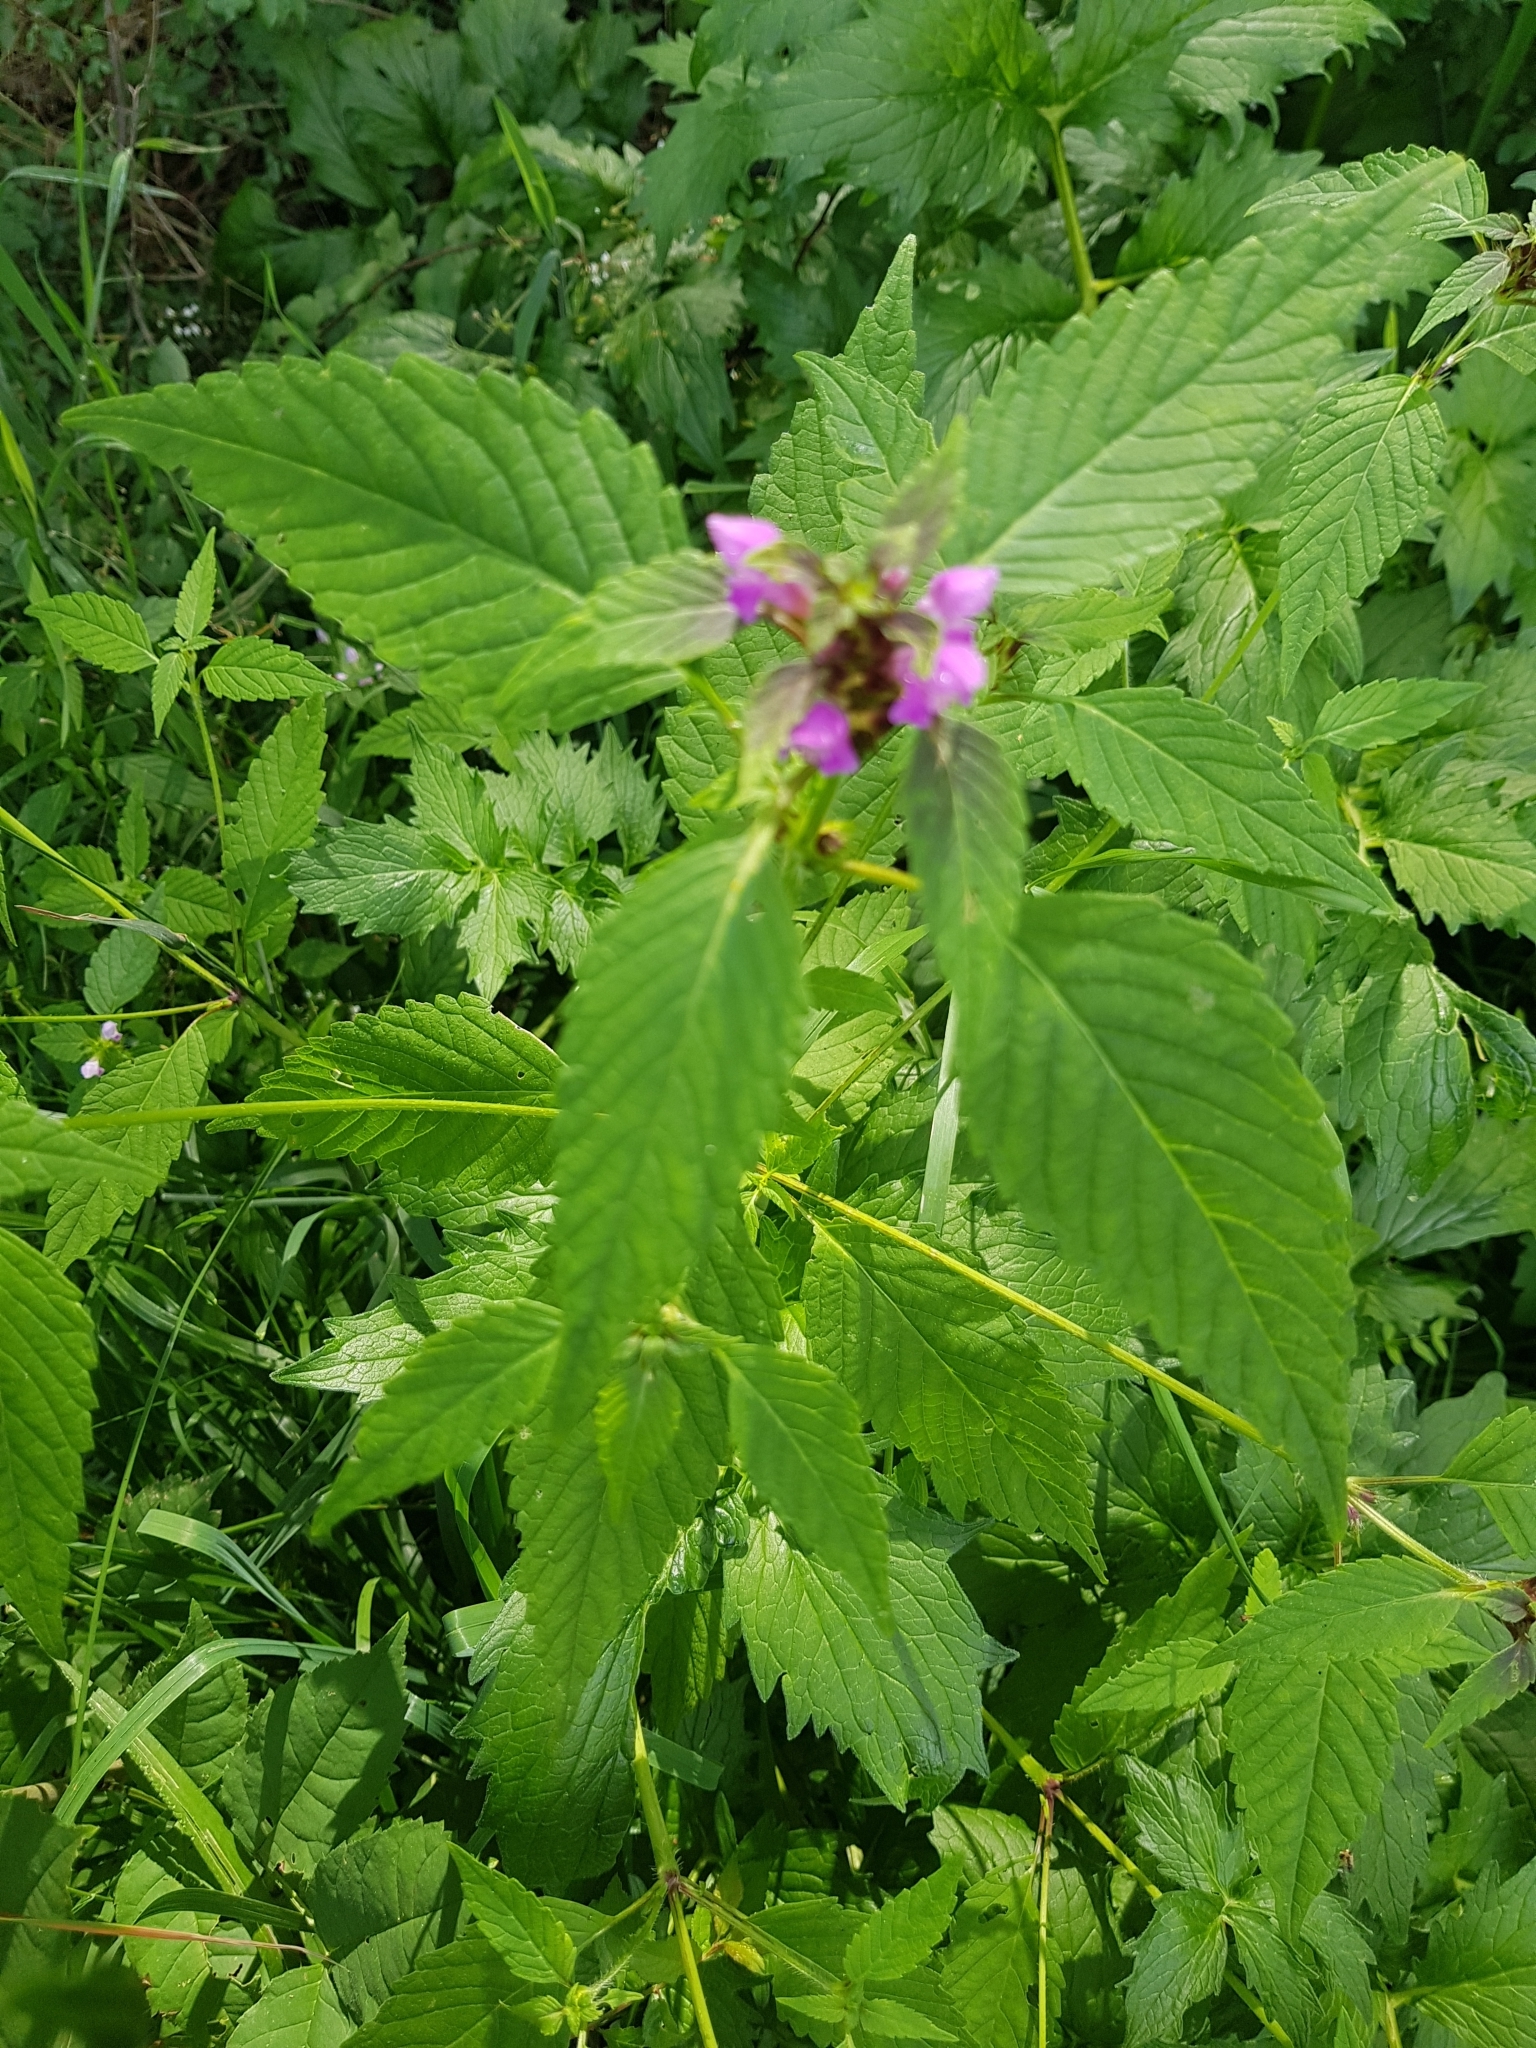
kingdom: Plantae
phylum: Tracheophyta
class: Magnoliopsida
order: Lamiales
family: Lamiaceae
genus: Galeopsis
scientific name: Galeopsis tetrahit
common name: Common hemp-nettle
